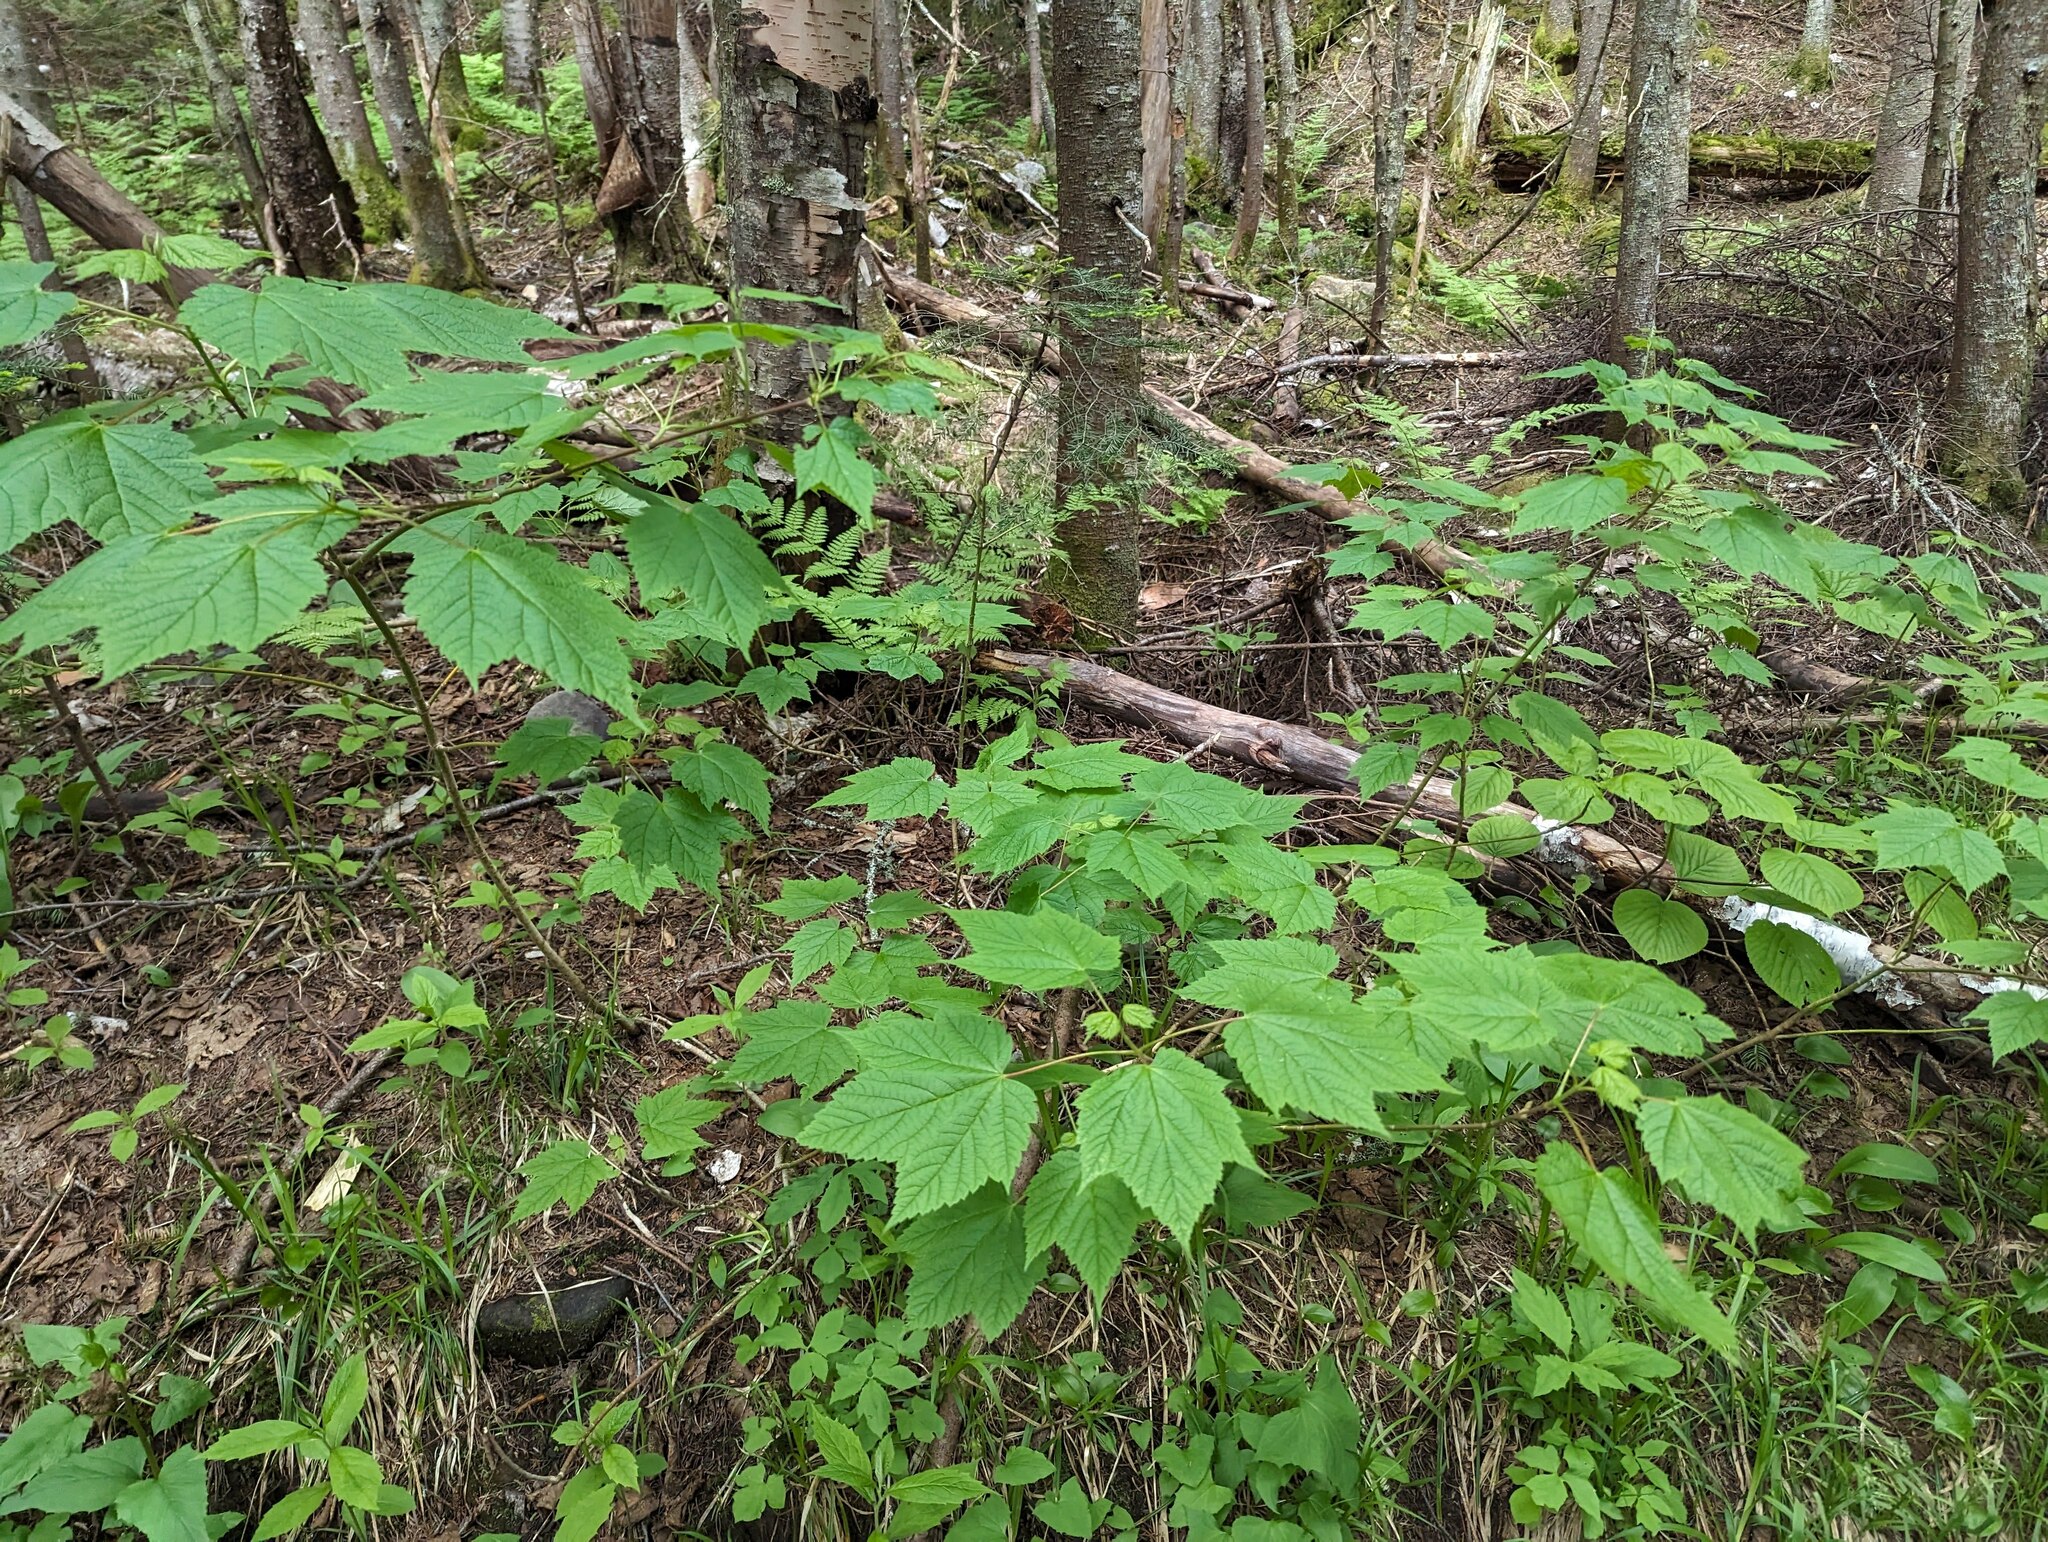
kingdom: Plantae
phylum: Tracheophyta
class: Magnoliopsida
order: Sapindales
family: Sapindaceae
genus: Acer
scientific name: Acer spicatum
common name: Mountain maple
